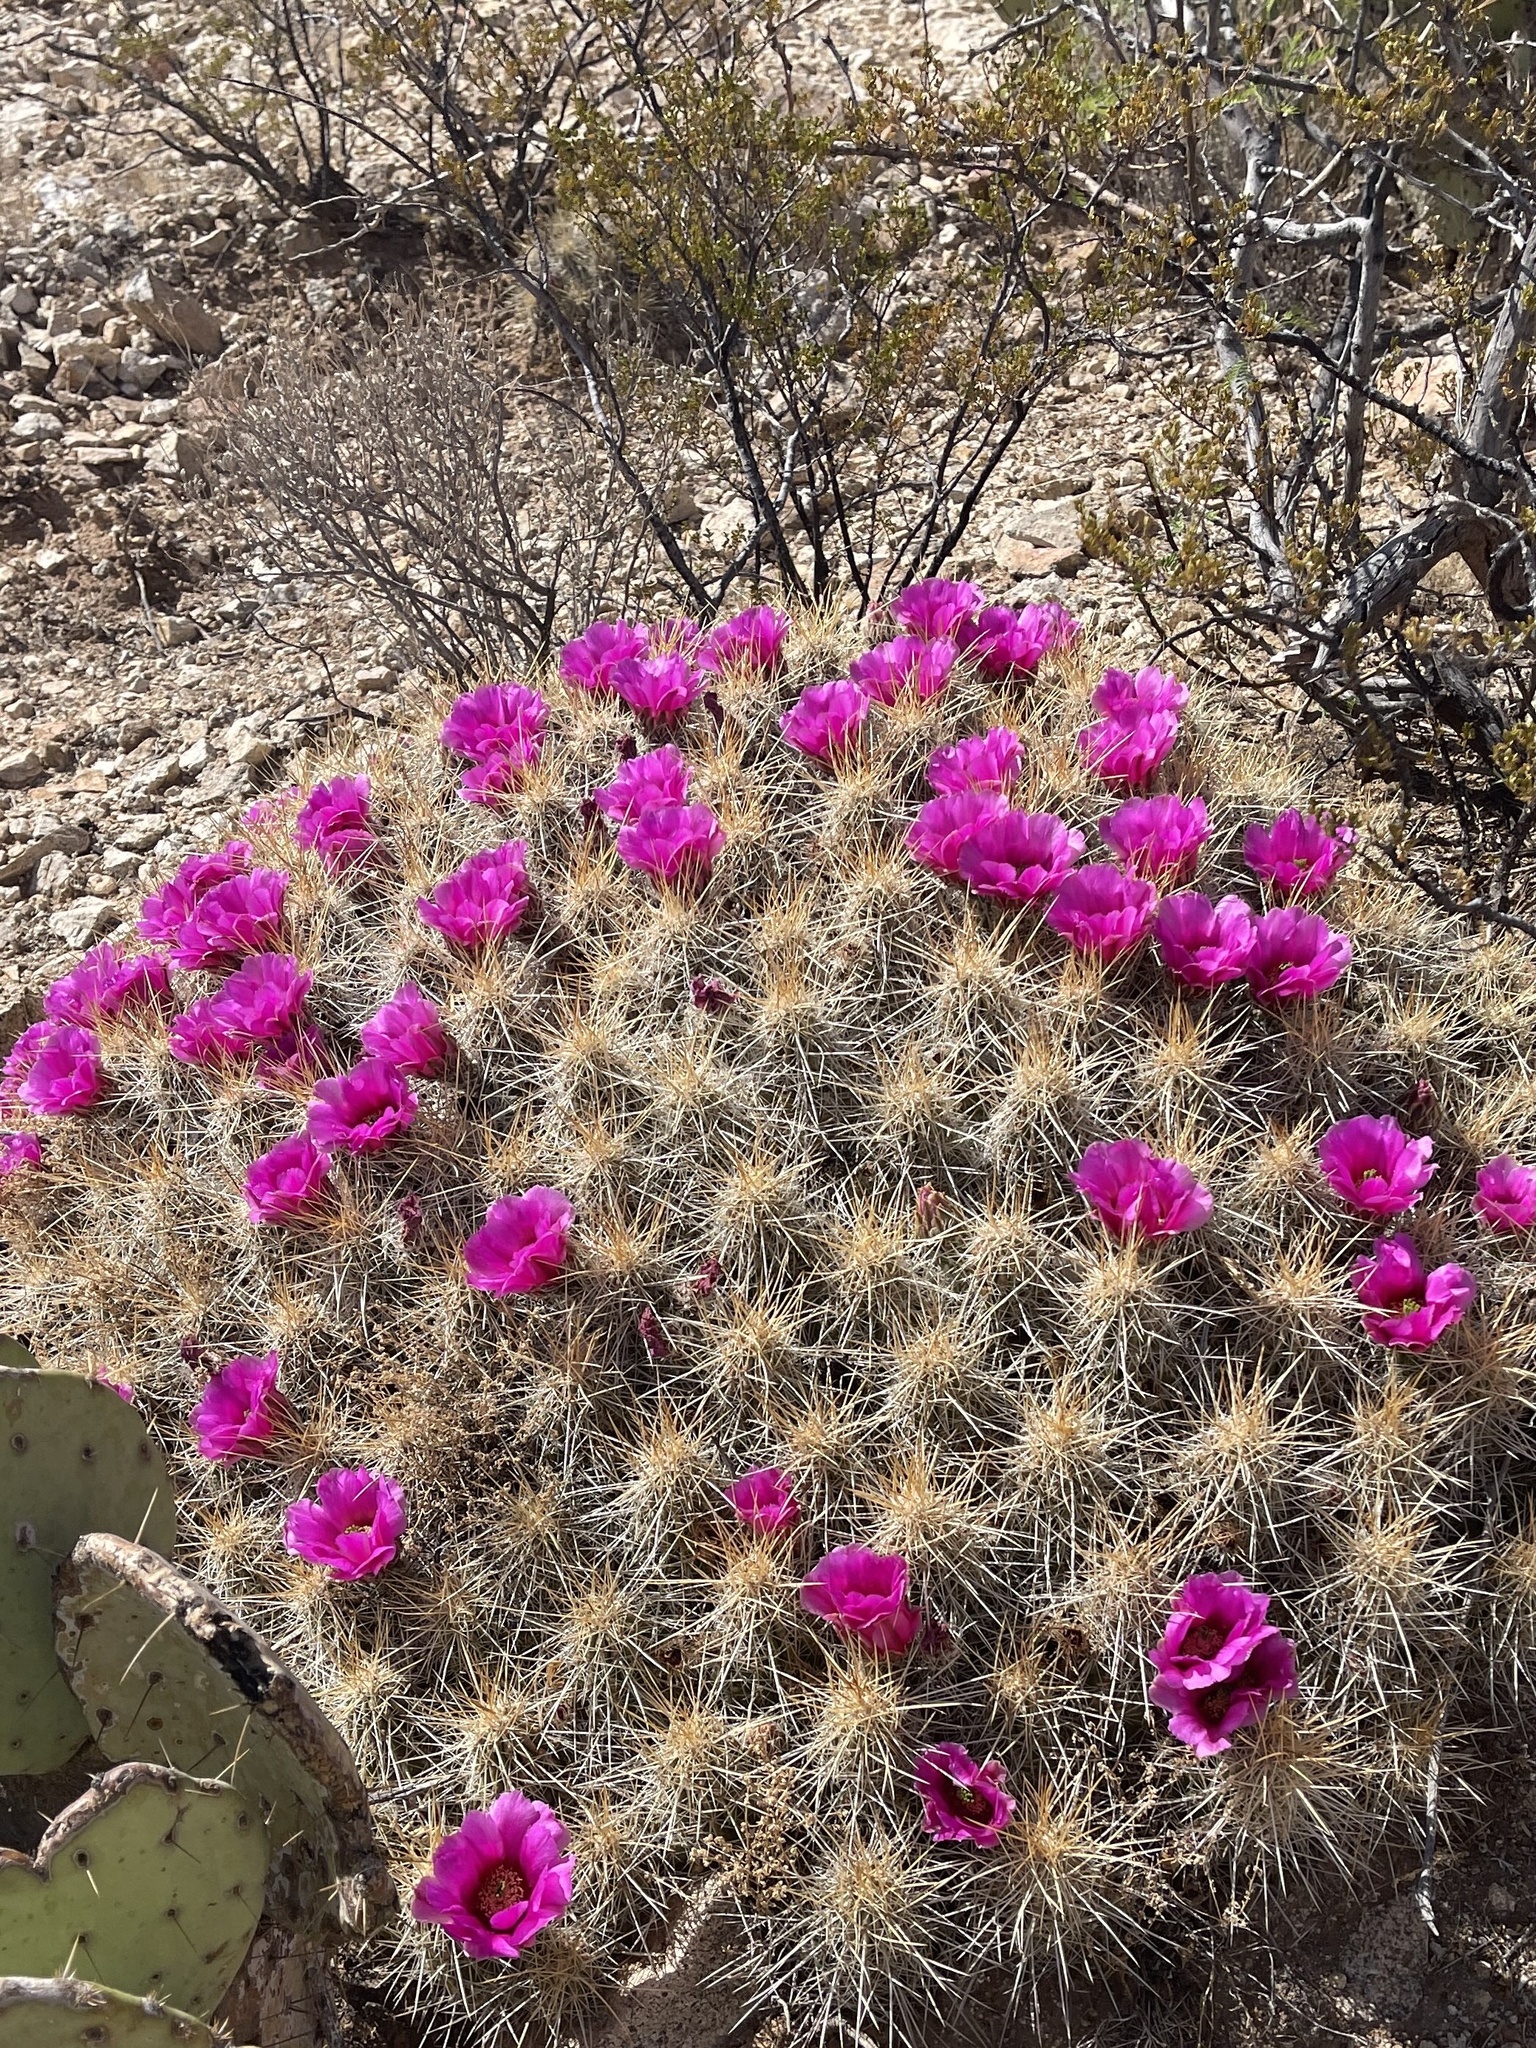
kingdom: Plantae
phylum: Tracheophyta
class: Magnoliopsida
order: Caryophyllales
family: Cactaceae
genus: Echinocereus
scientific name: Echinocereus stramineus
